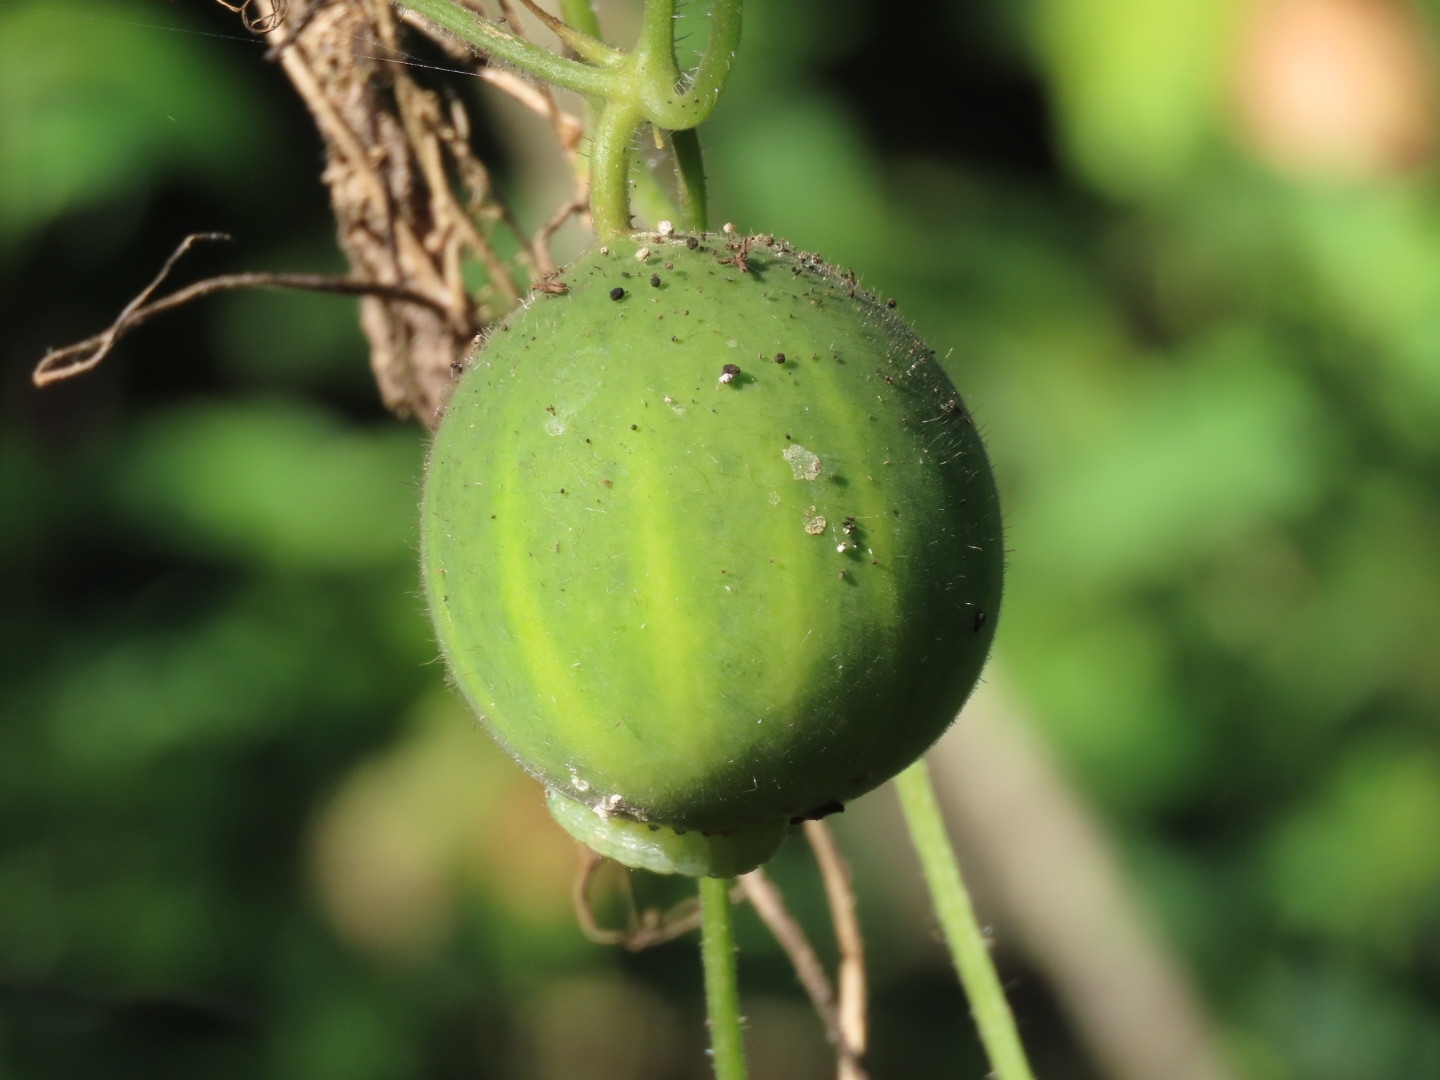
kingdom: Plantae
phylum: Tracheophyta
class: Magnoliopsida
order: Cucurbitales
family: Cucurbitaceae
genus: Polyclathra
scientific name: Polyclathra cucumerina
